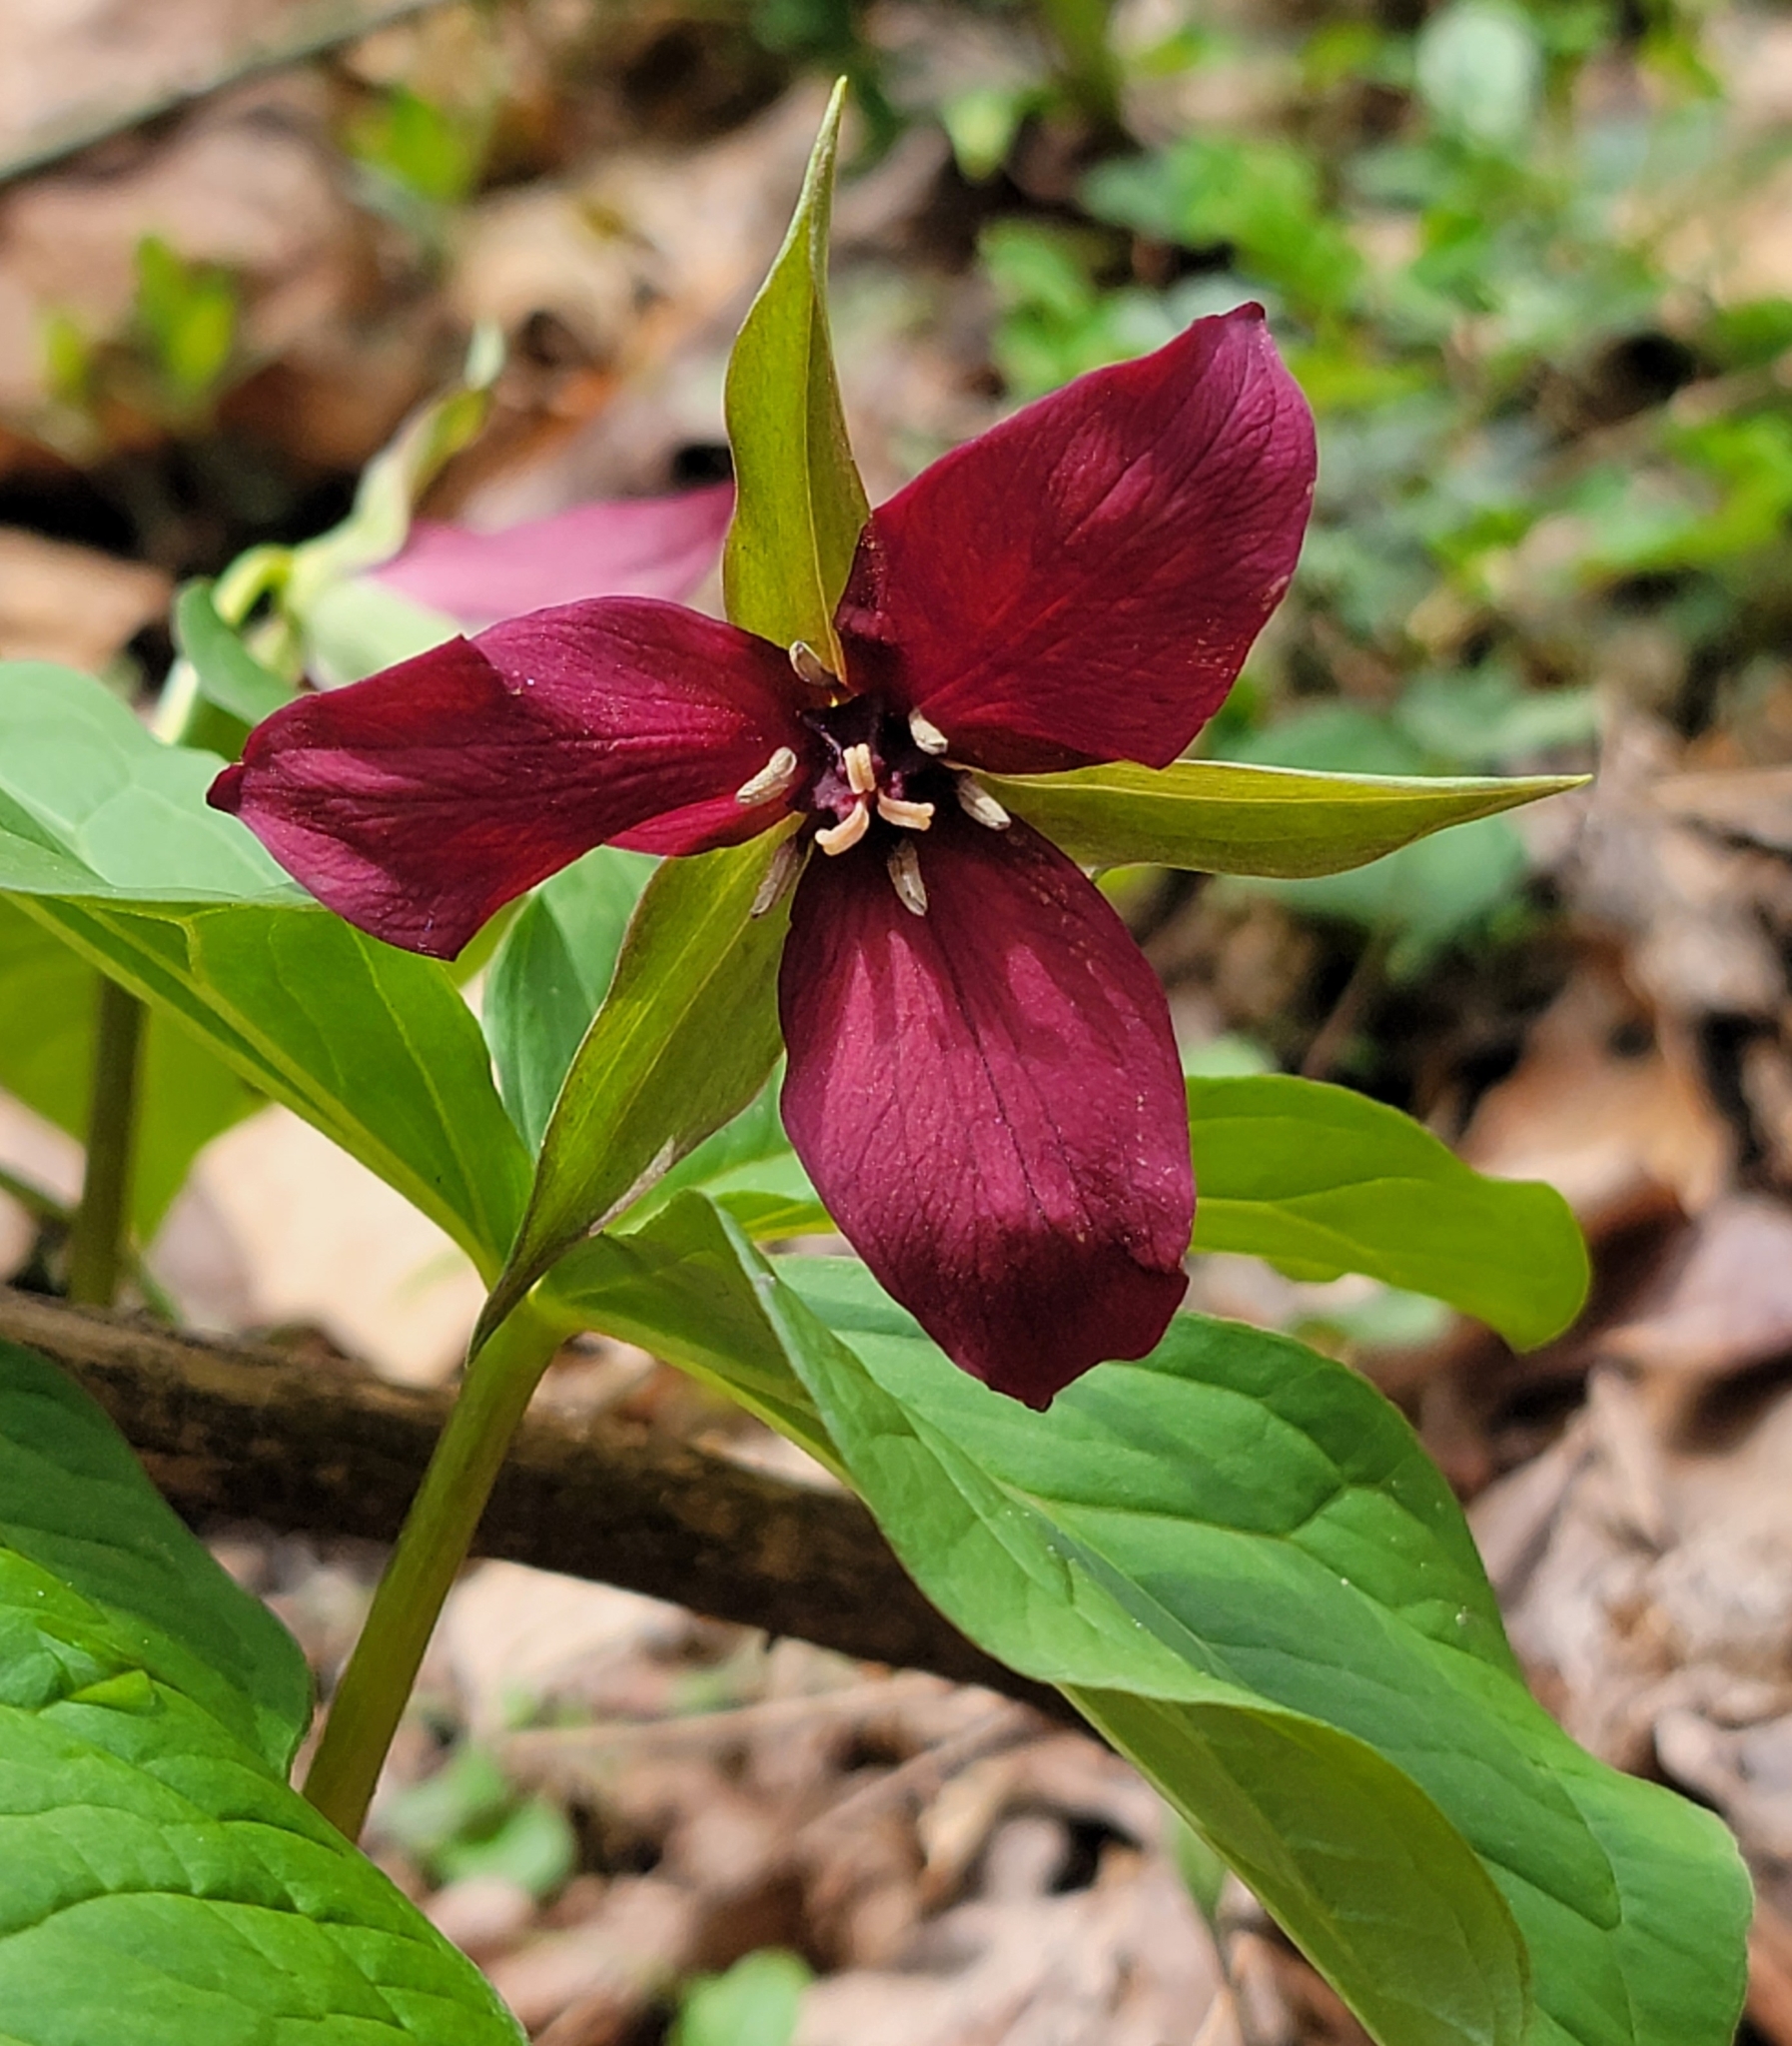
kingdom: Plantae
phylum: Tracheophyta
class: Liliopsida
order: Liliales
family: Melanthiaceae
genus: Trillium
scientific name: Trillium erectum
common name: Purple trillium
